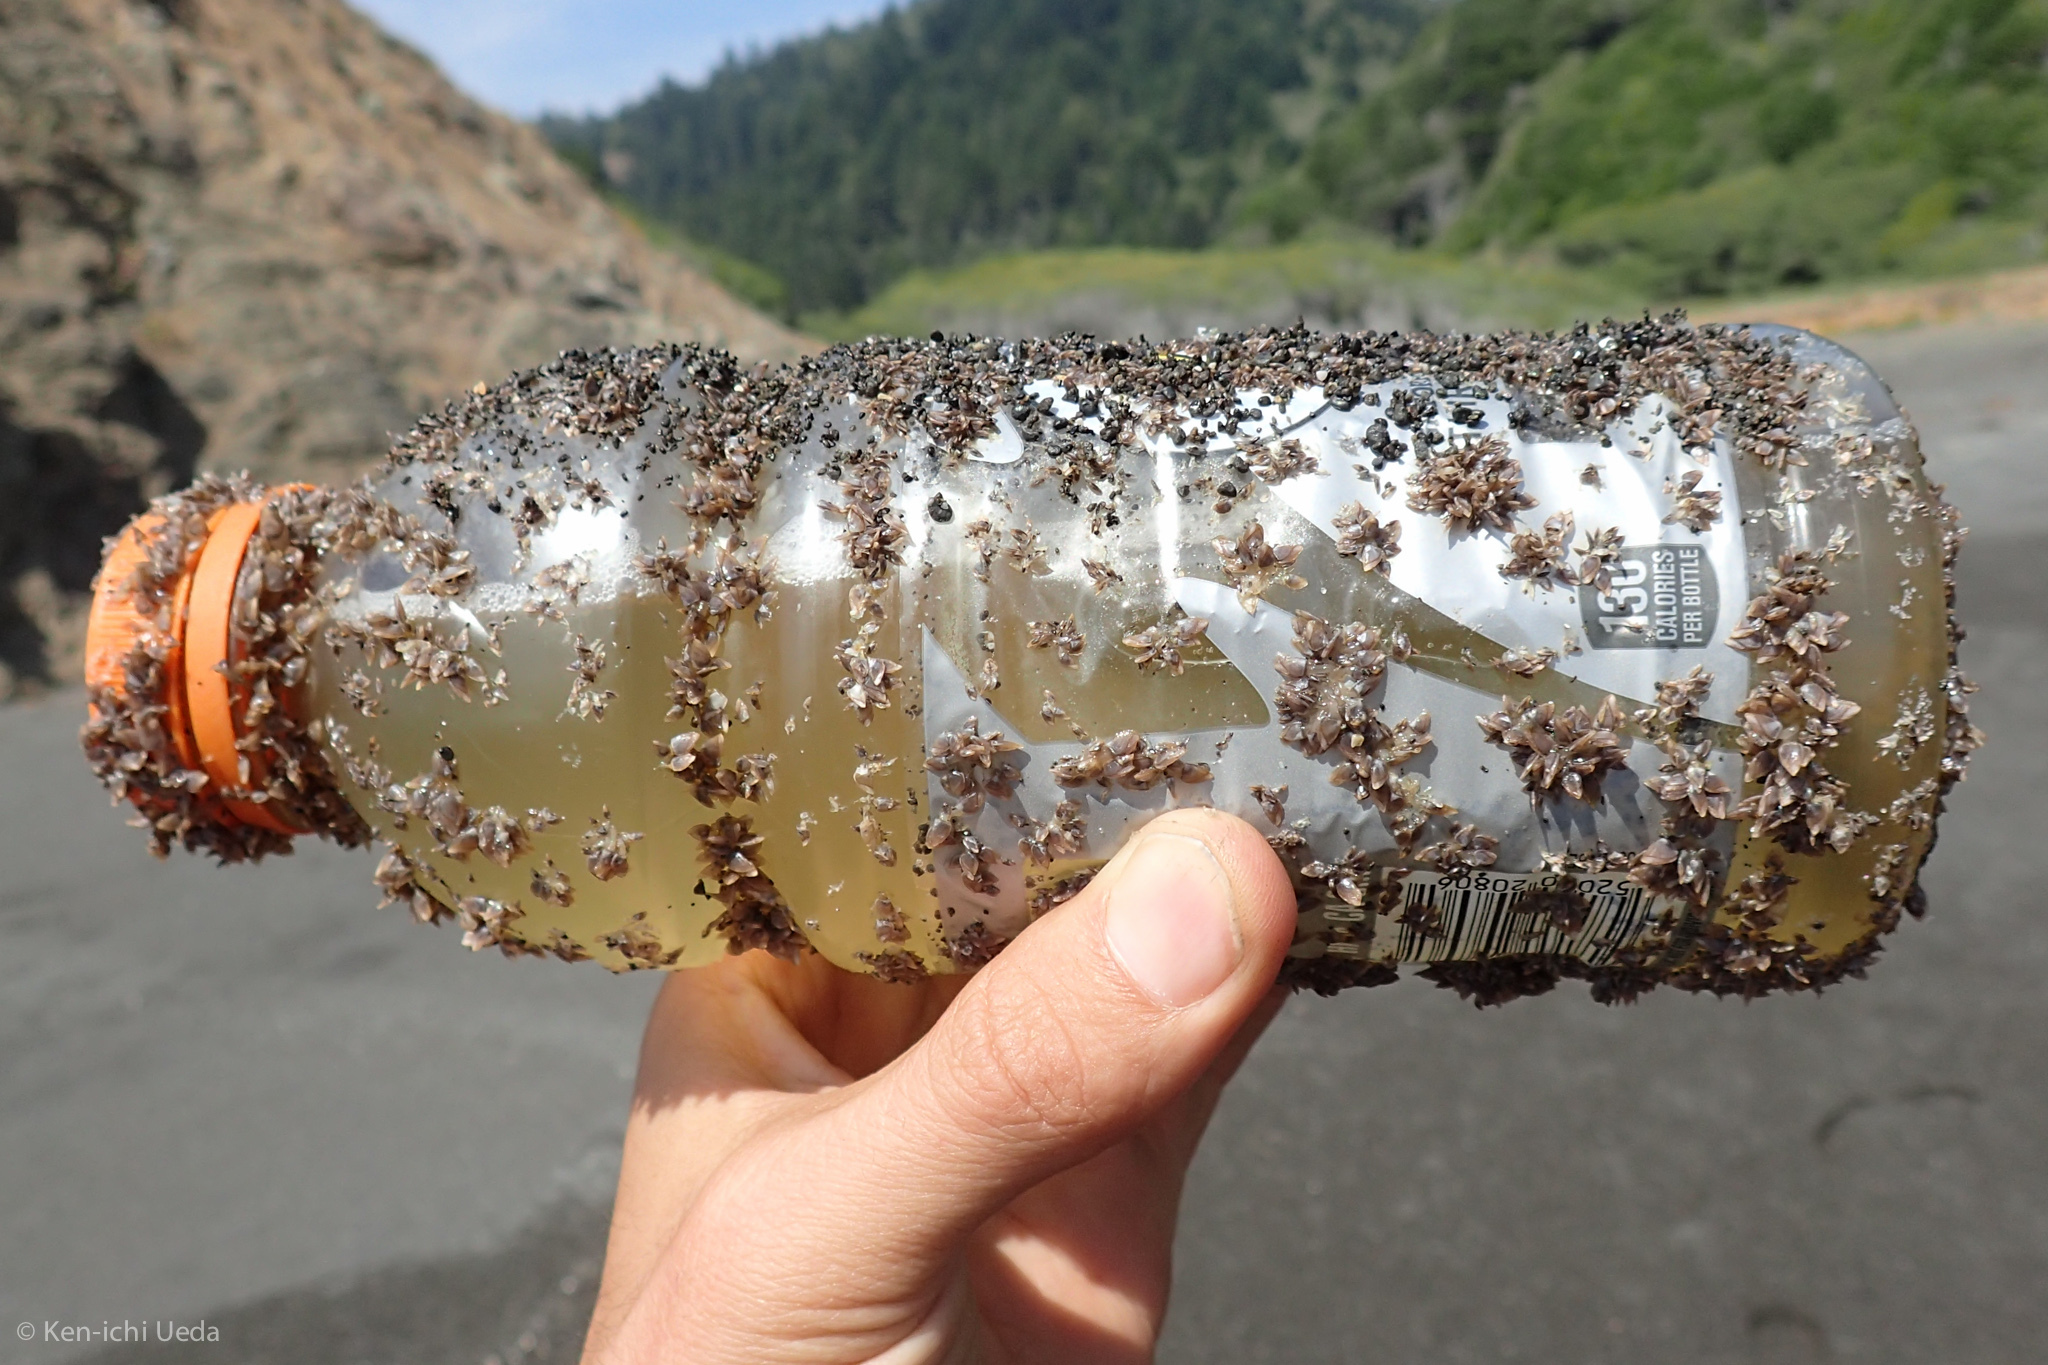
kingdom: Animalia
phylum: Arthropoda
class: Maxillopoda
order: Pedunculata
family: Lepadidae
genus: Lepas
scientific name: Lepas pacifica
